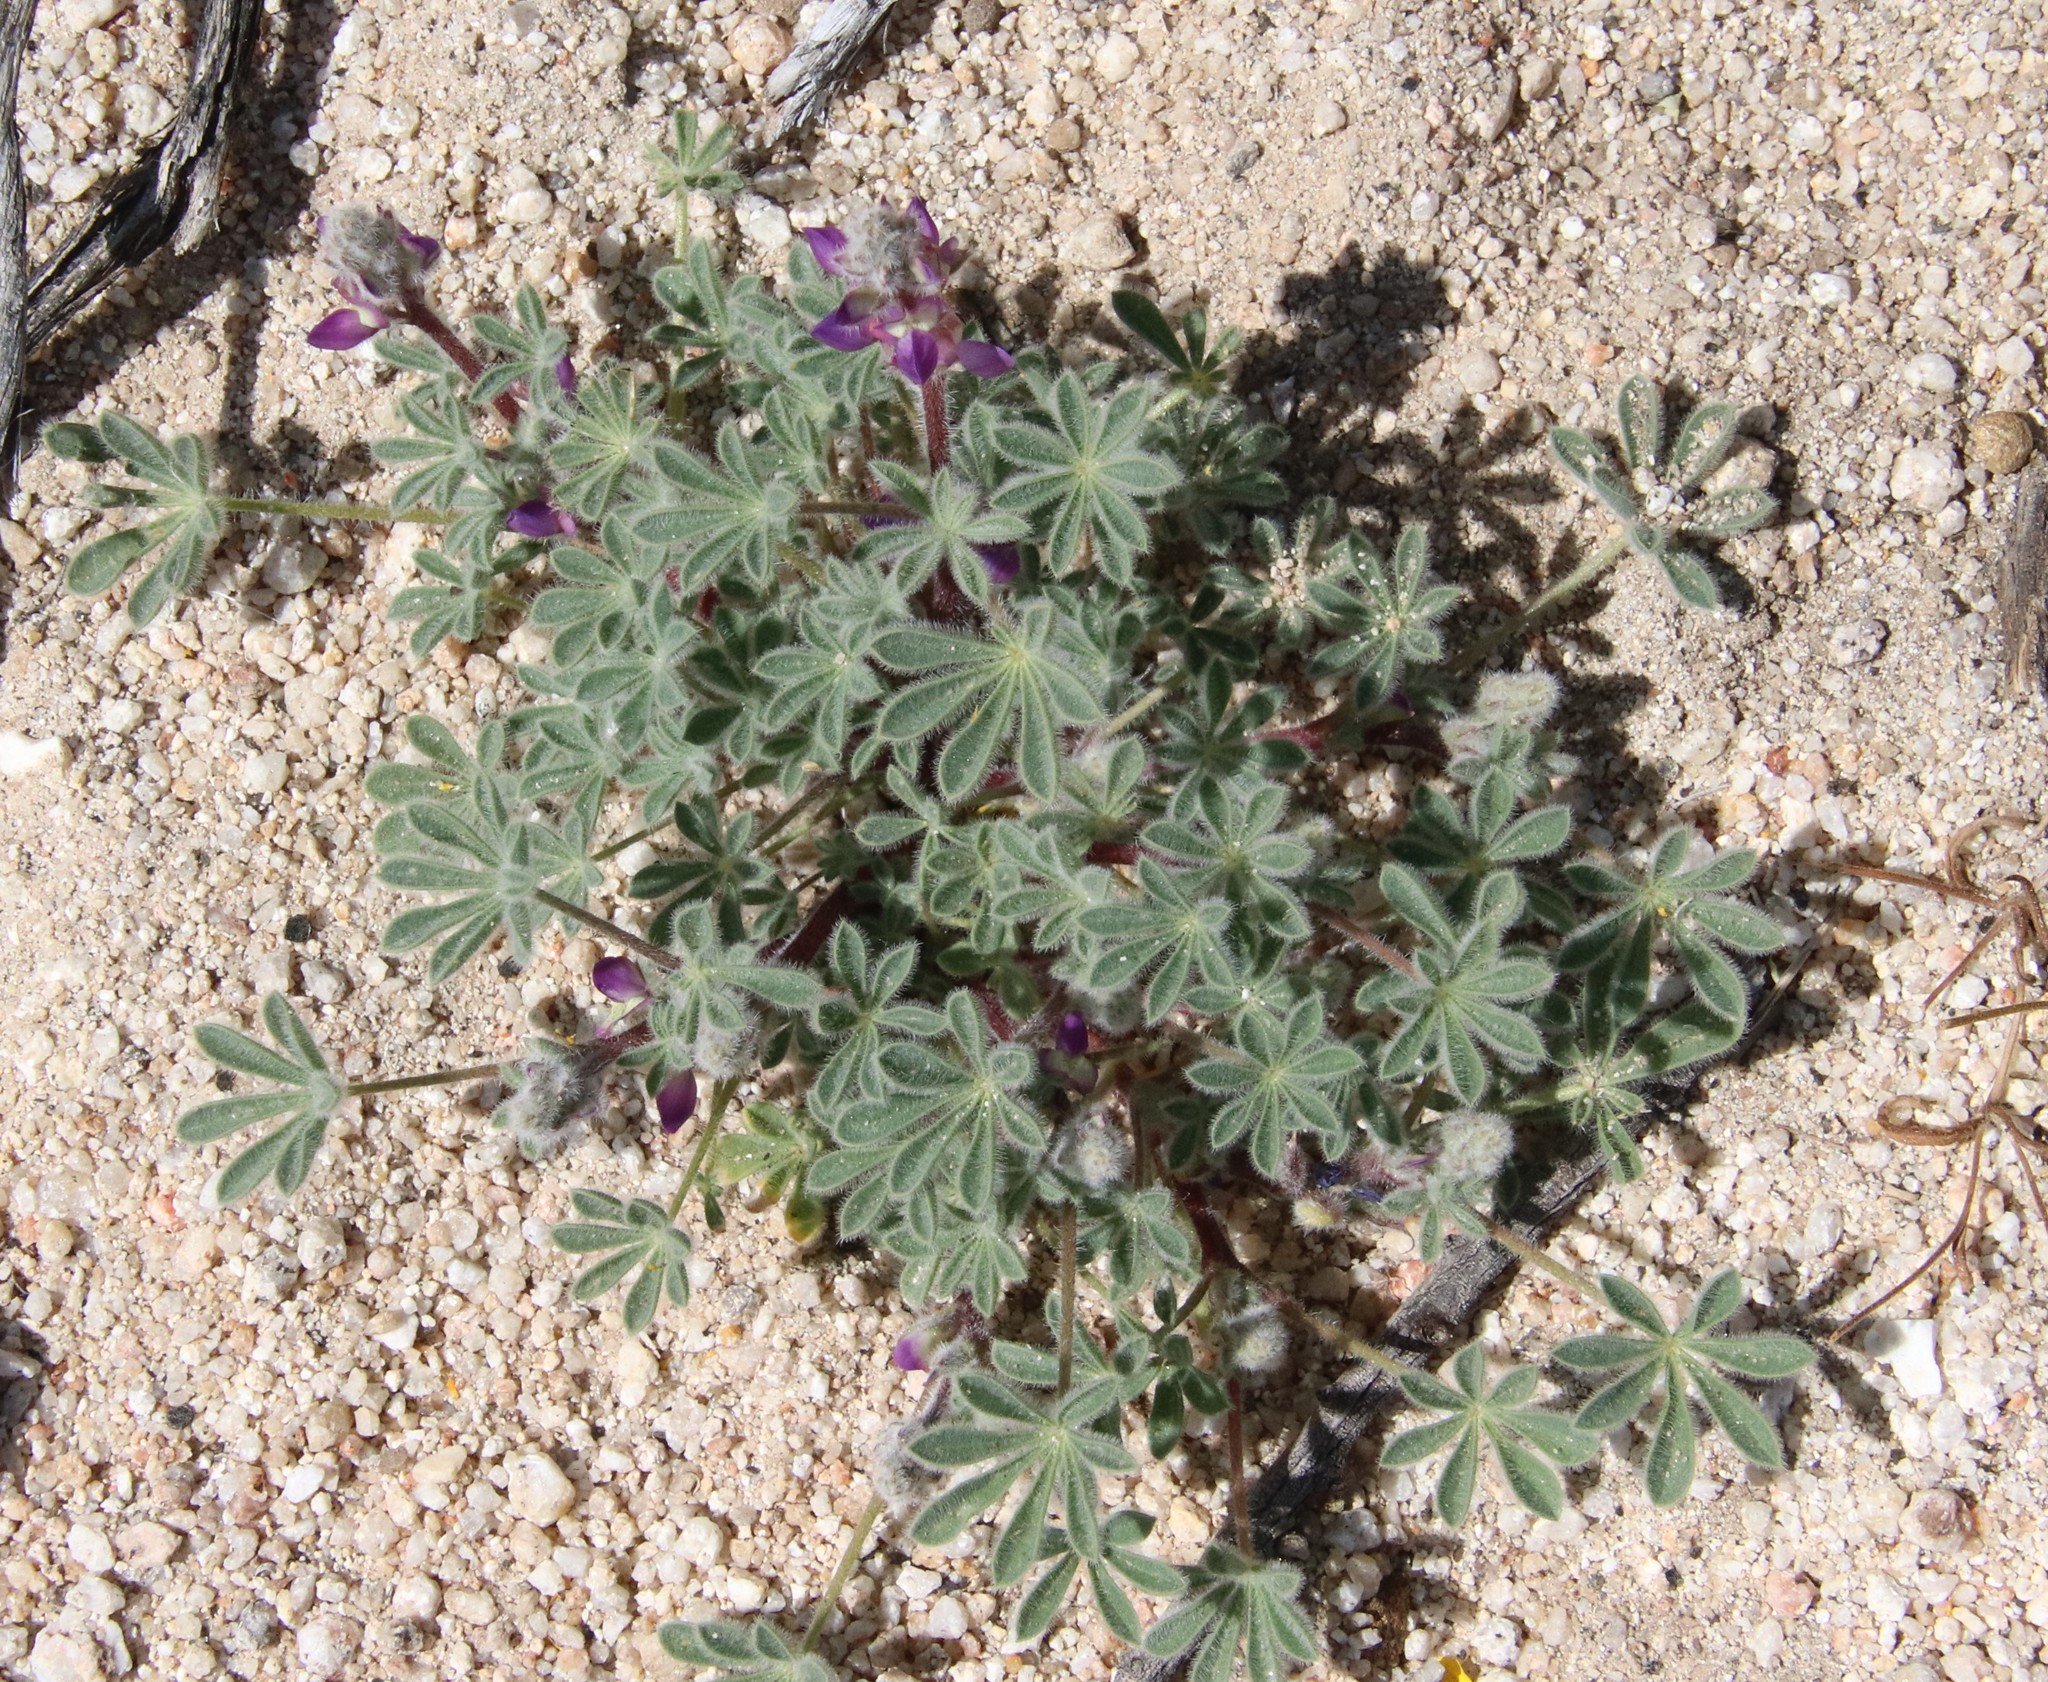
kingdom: Plantae
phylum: Tracheophyta
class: Magnoliopsida
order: Fabales
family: Fabaceae
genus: Lupinus
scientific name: Lupinus concinnus
